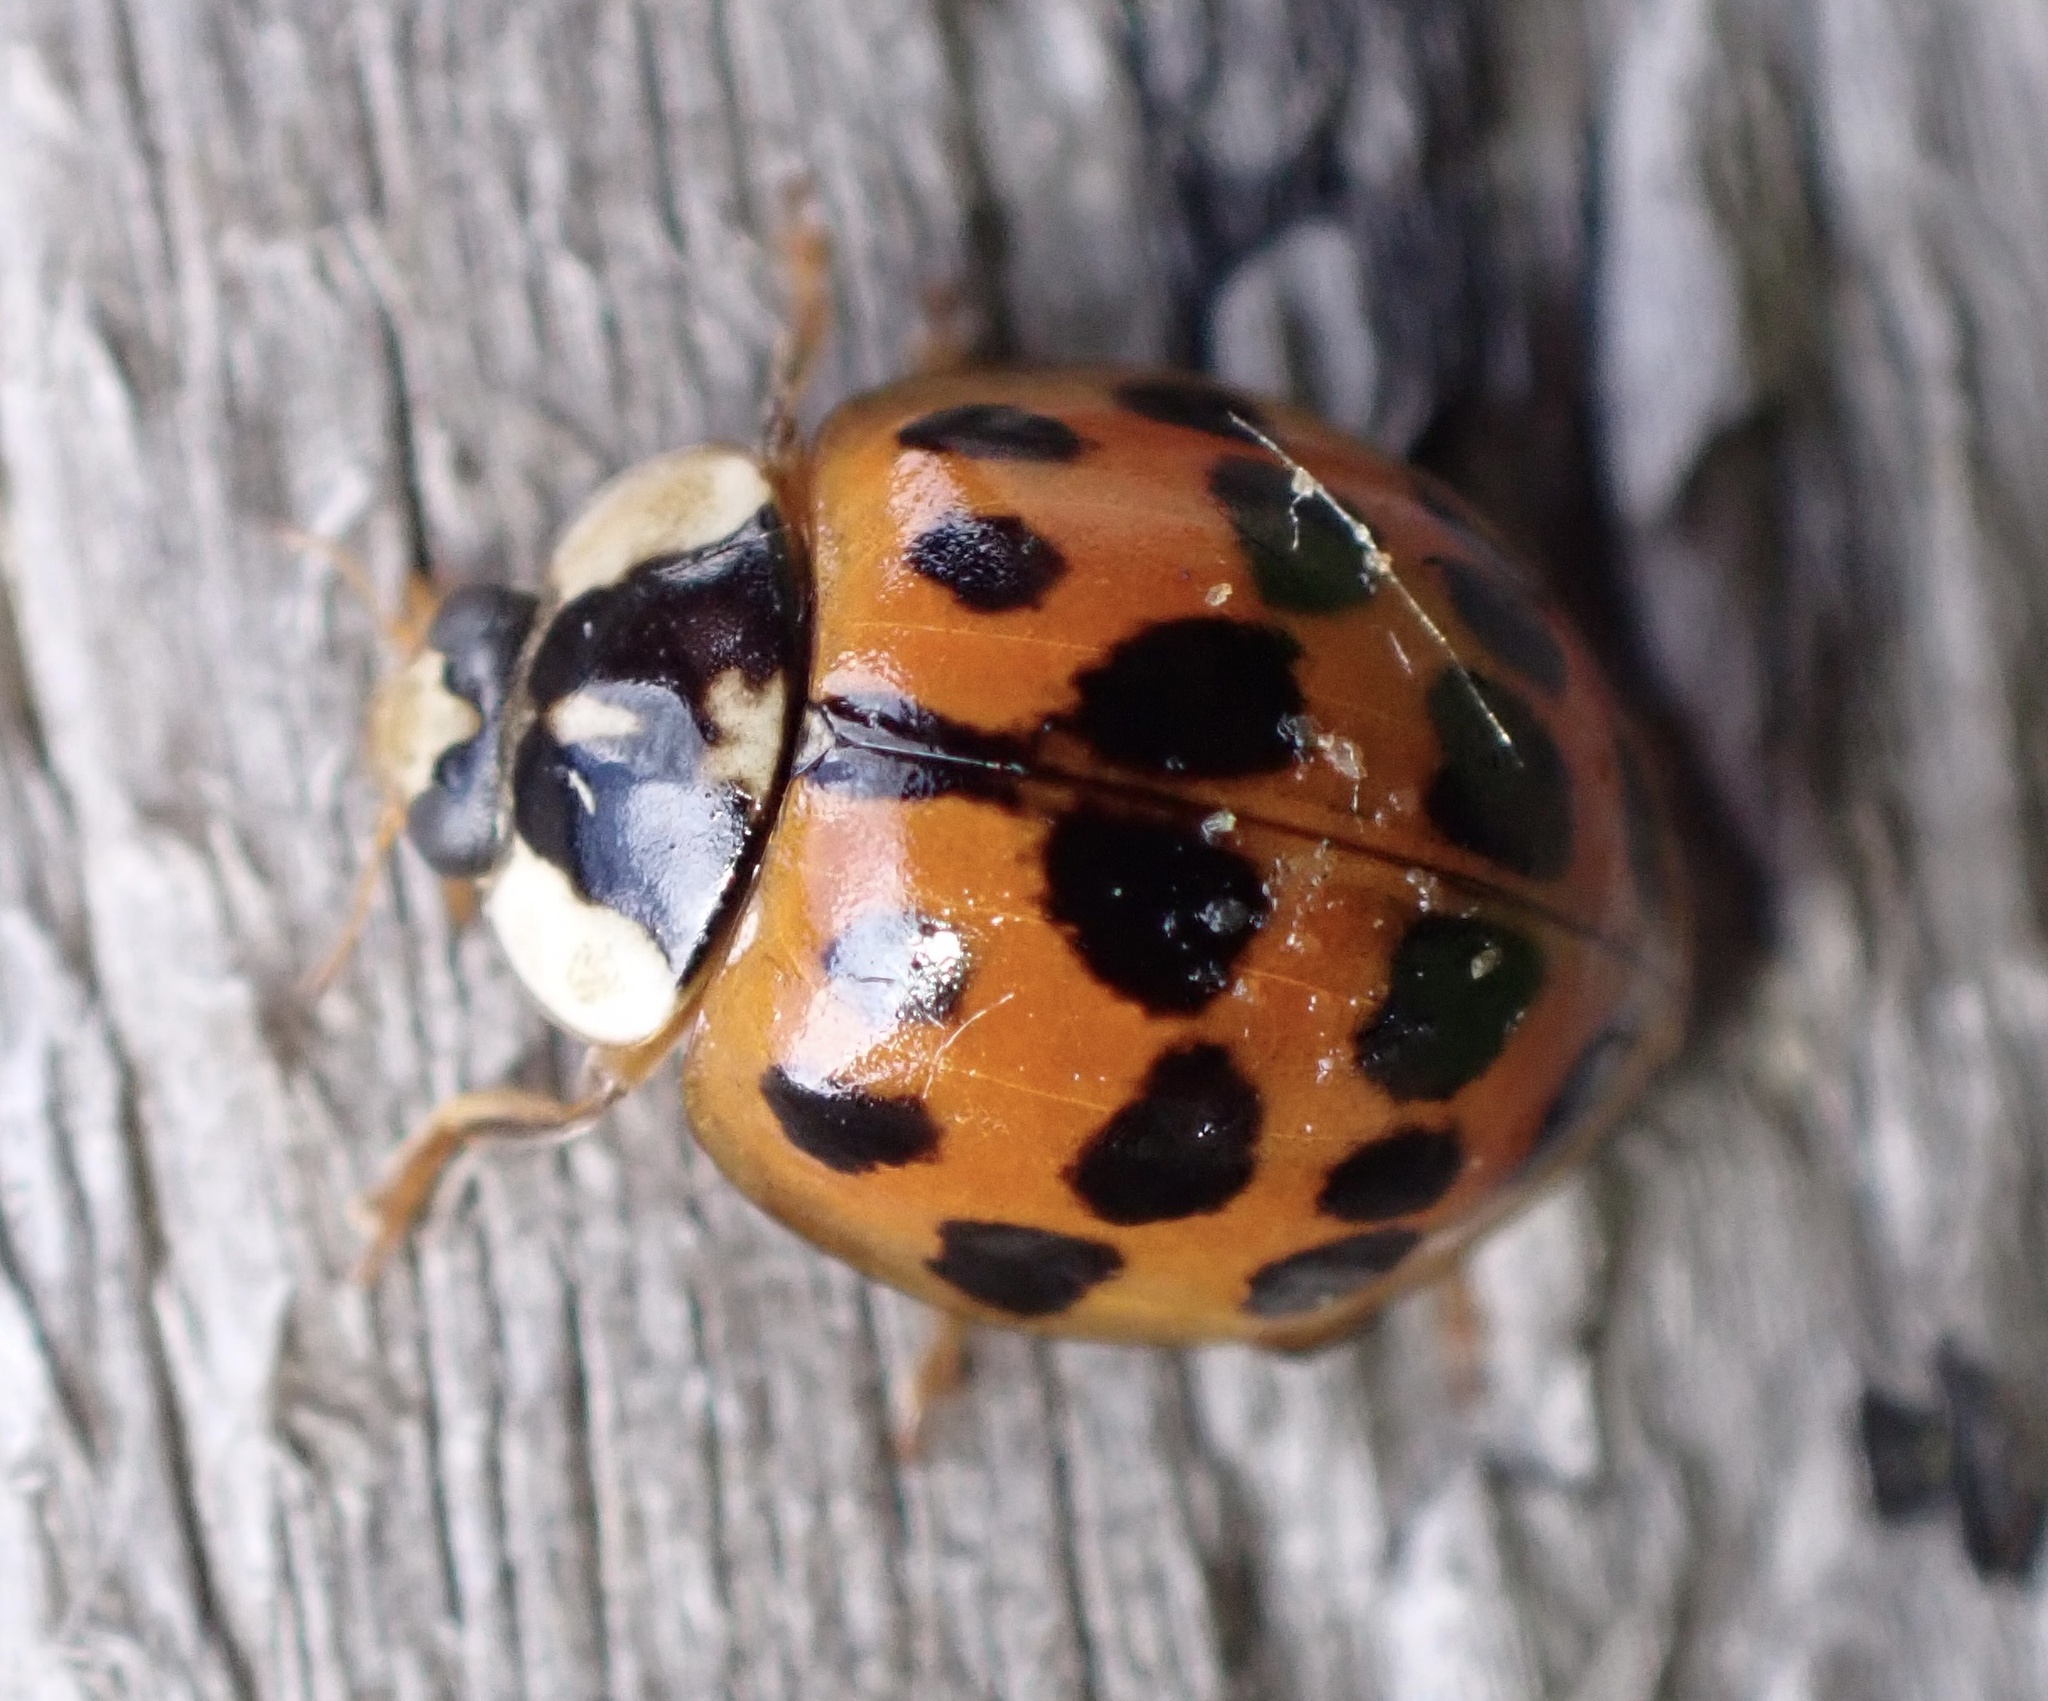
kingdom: Animalia
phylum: Arthropoda
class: Insecta
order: Coleoptera
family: Coccinellidae
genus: Harmonia
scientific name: Harmonia axyridis
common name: Harlequin ladybird
